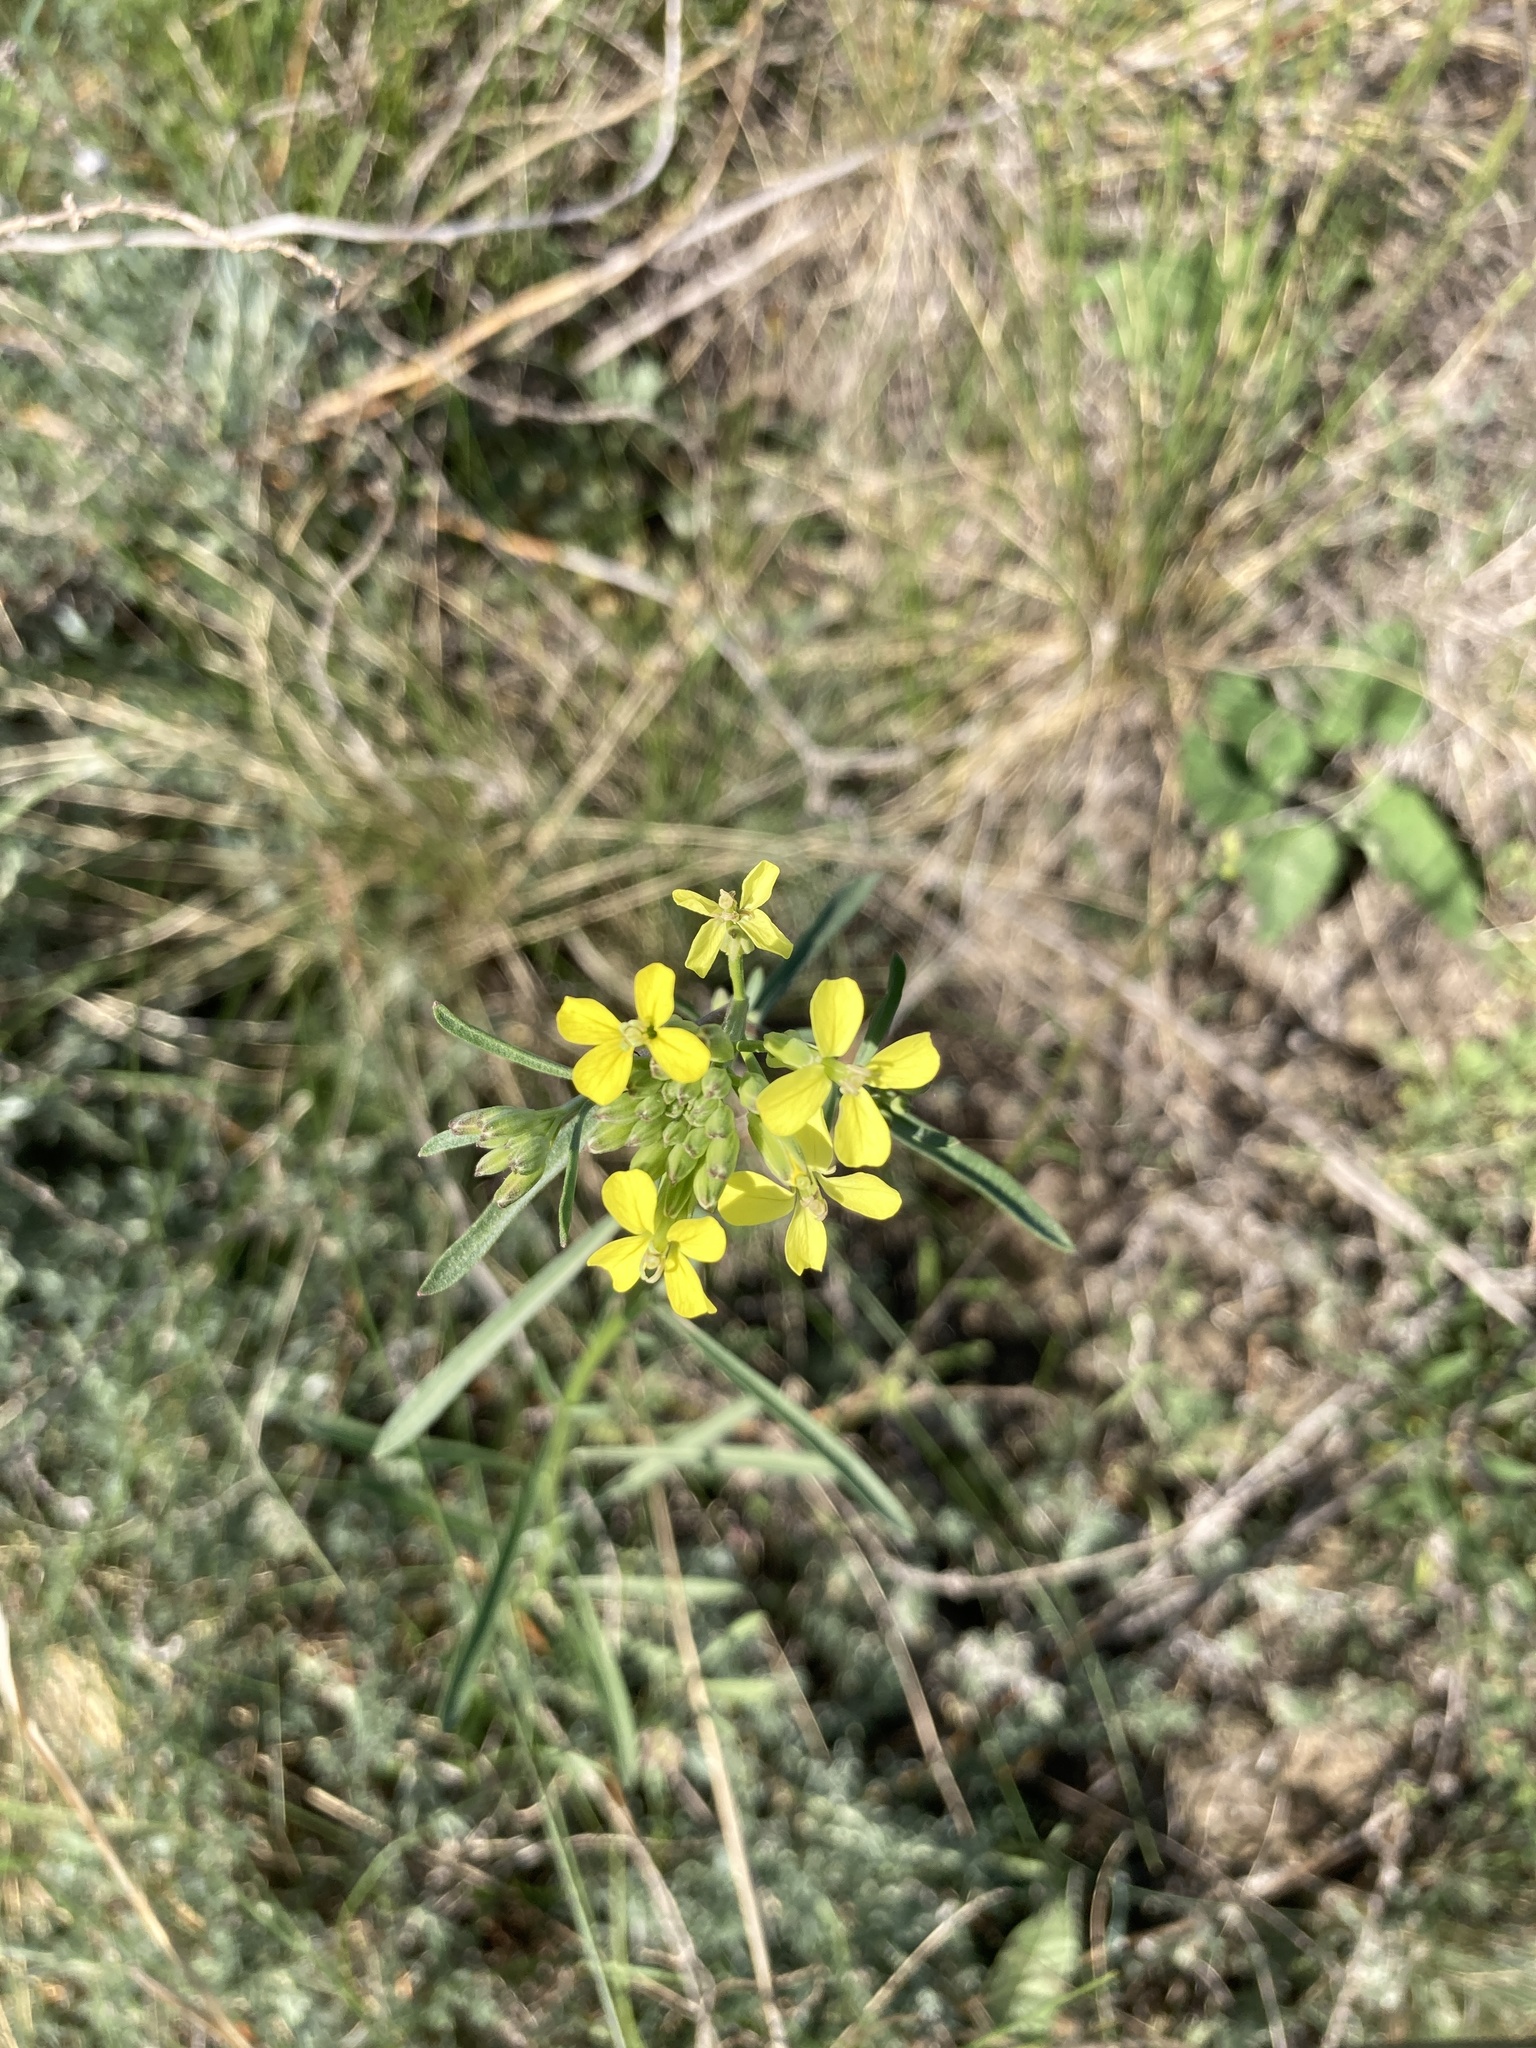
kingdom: Plantae
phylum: Tracheophyta
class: Magnoliopsida
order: Brassicales
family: Brassicaceae
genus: Erysimum
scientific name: Erysimum diffusum
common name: Diffuse wallflower
